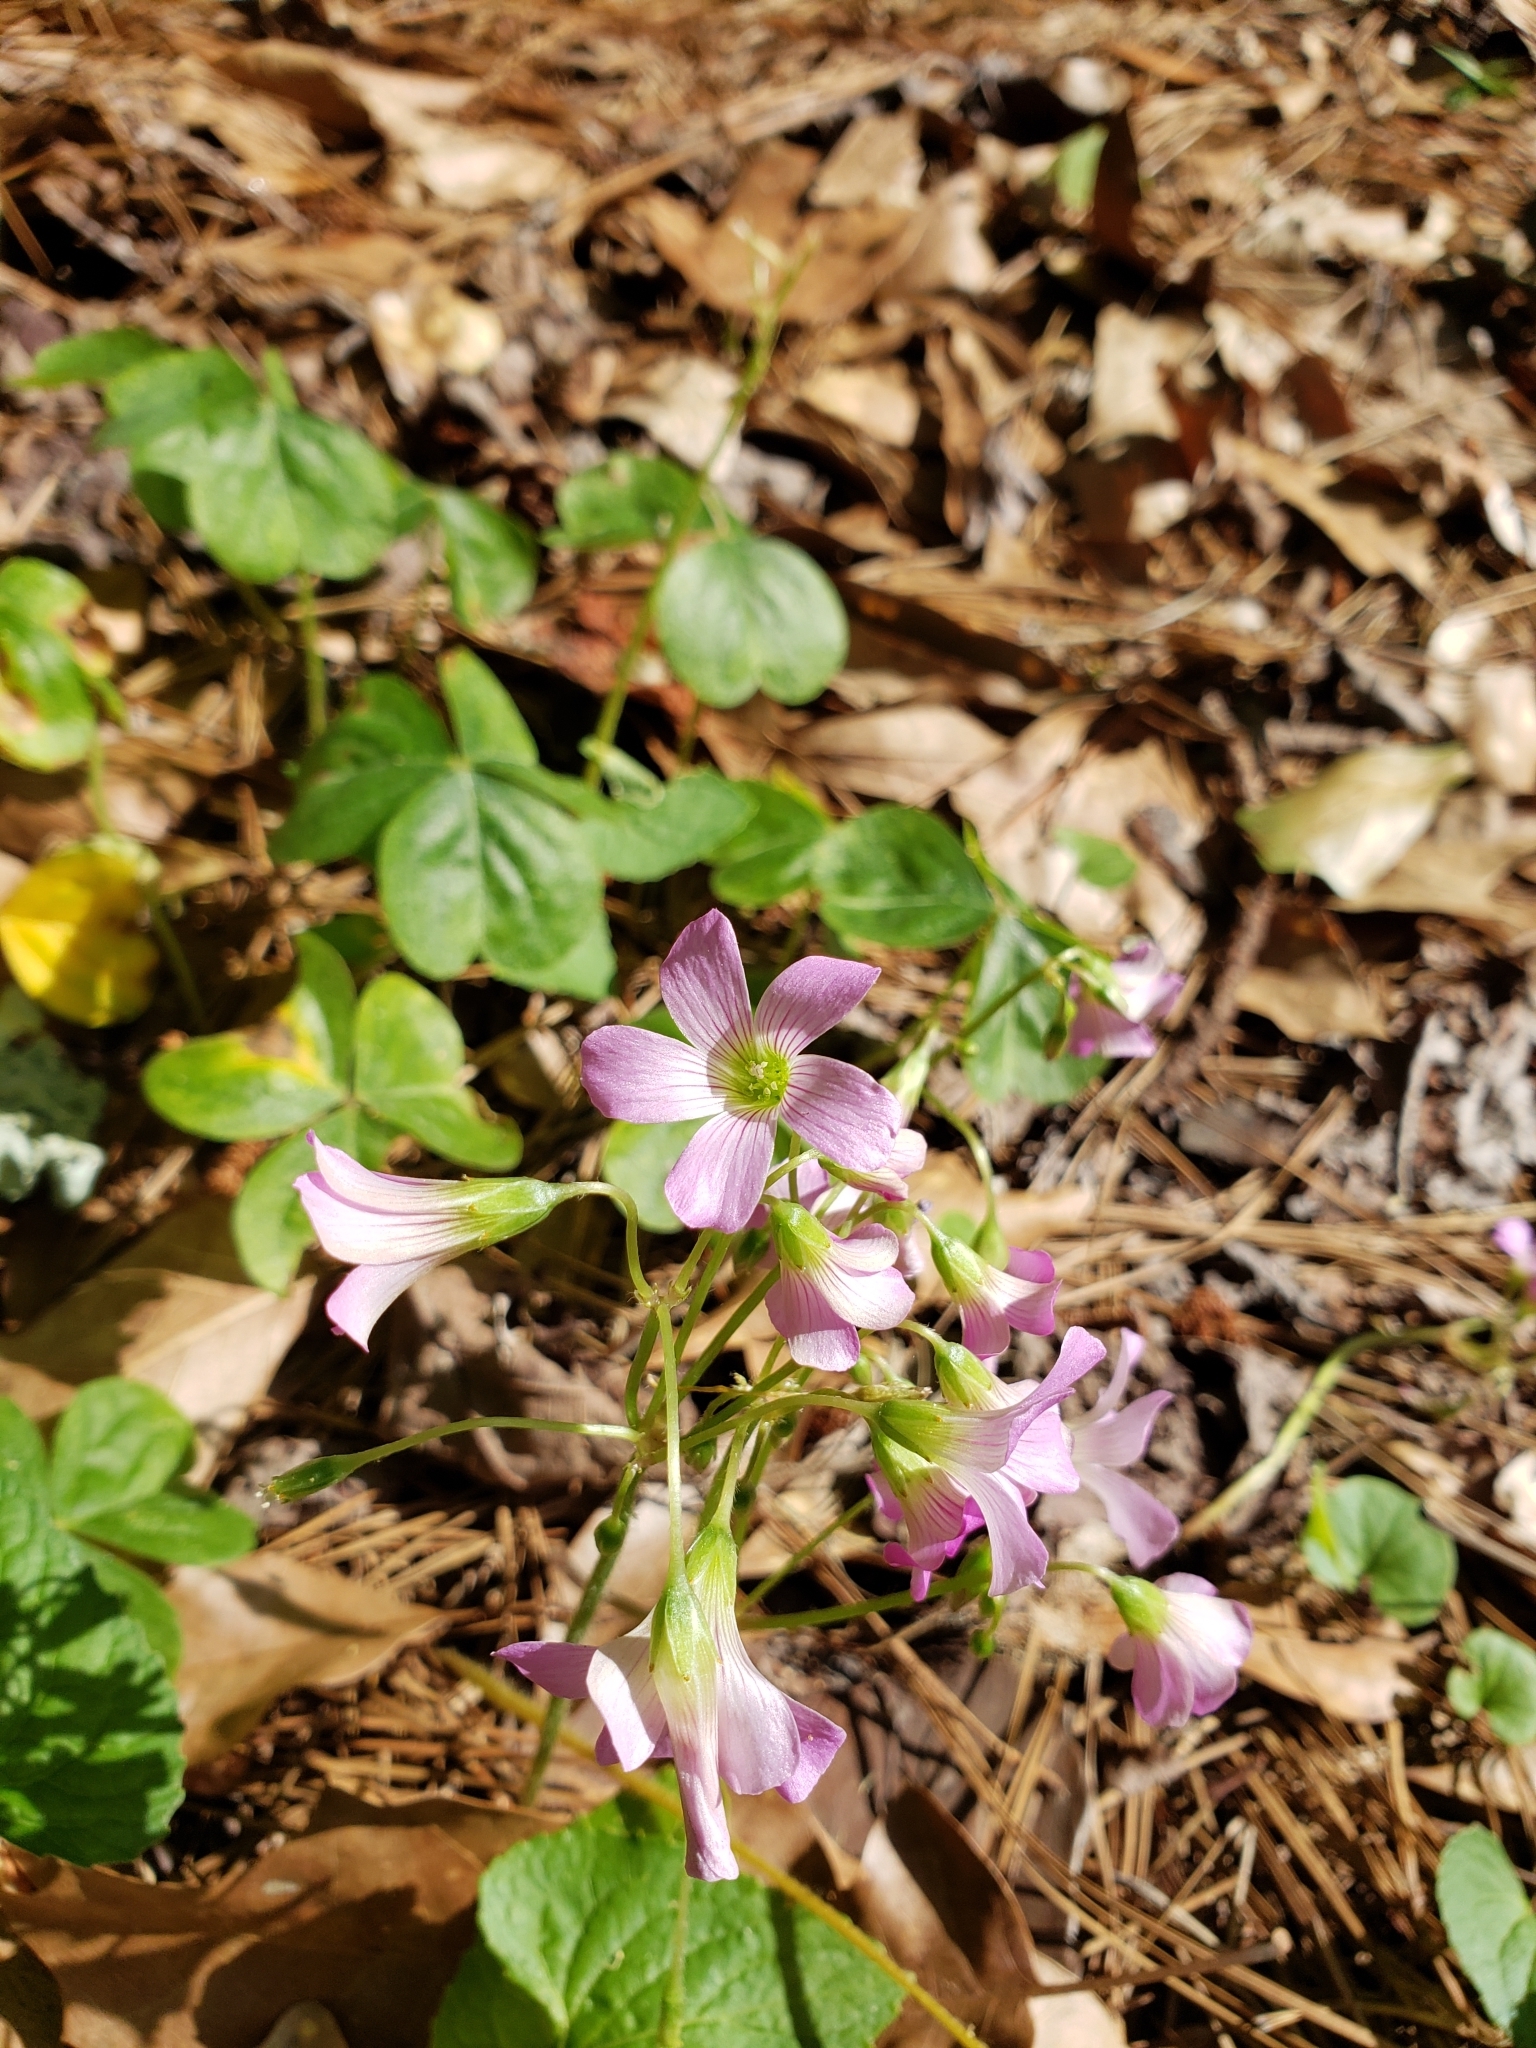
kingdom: Plantae
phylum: Tracheophyta
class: Magnoliopsida
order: Oxalidales
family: Oxalidaceae
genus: Oxalis
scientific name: Oxalis debilis
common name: Large-flowered pink-sorrel
